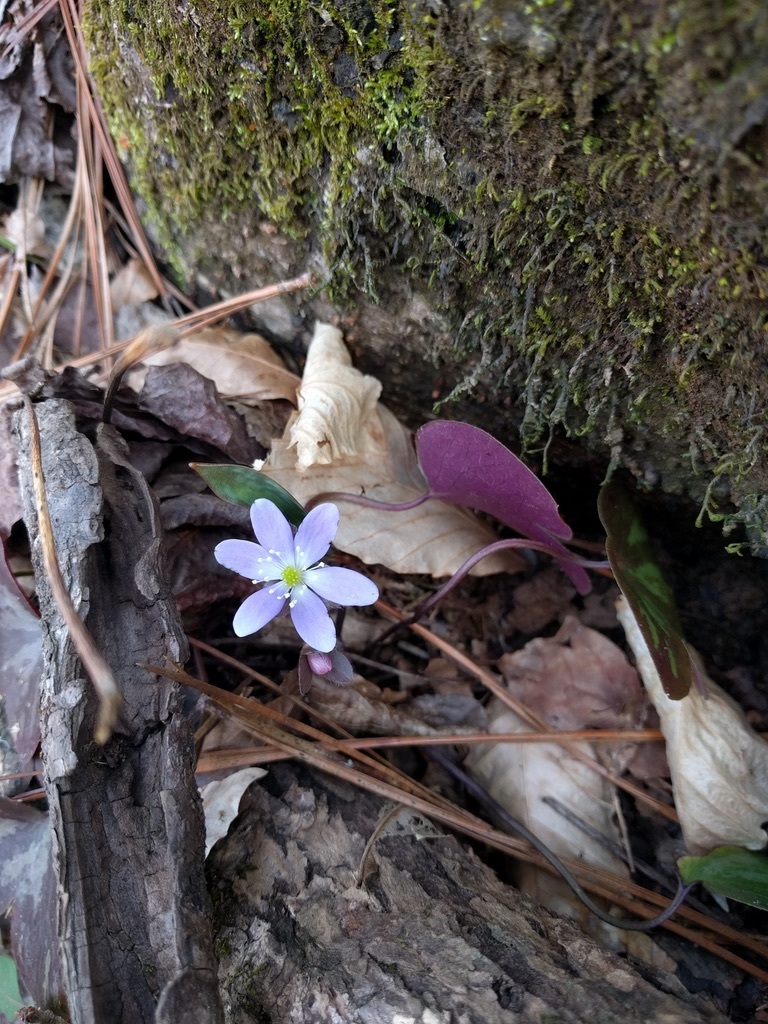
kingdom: Plantae
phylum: Tracheophyta
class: Magnoliopsida
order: Ranunculales
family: Ranunculaceae
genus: Hepatica
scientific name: Hepatica americana
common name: American hepatica
